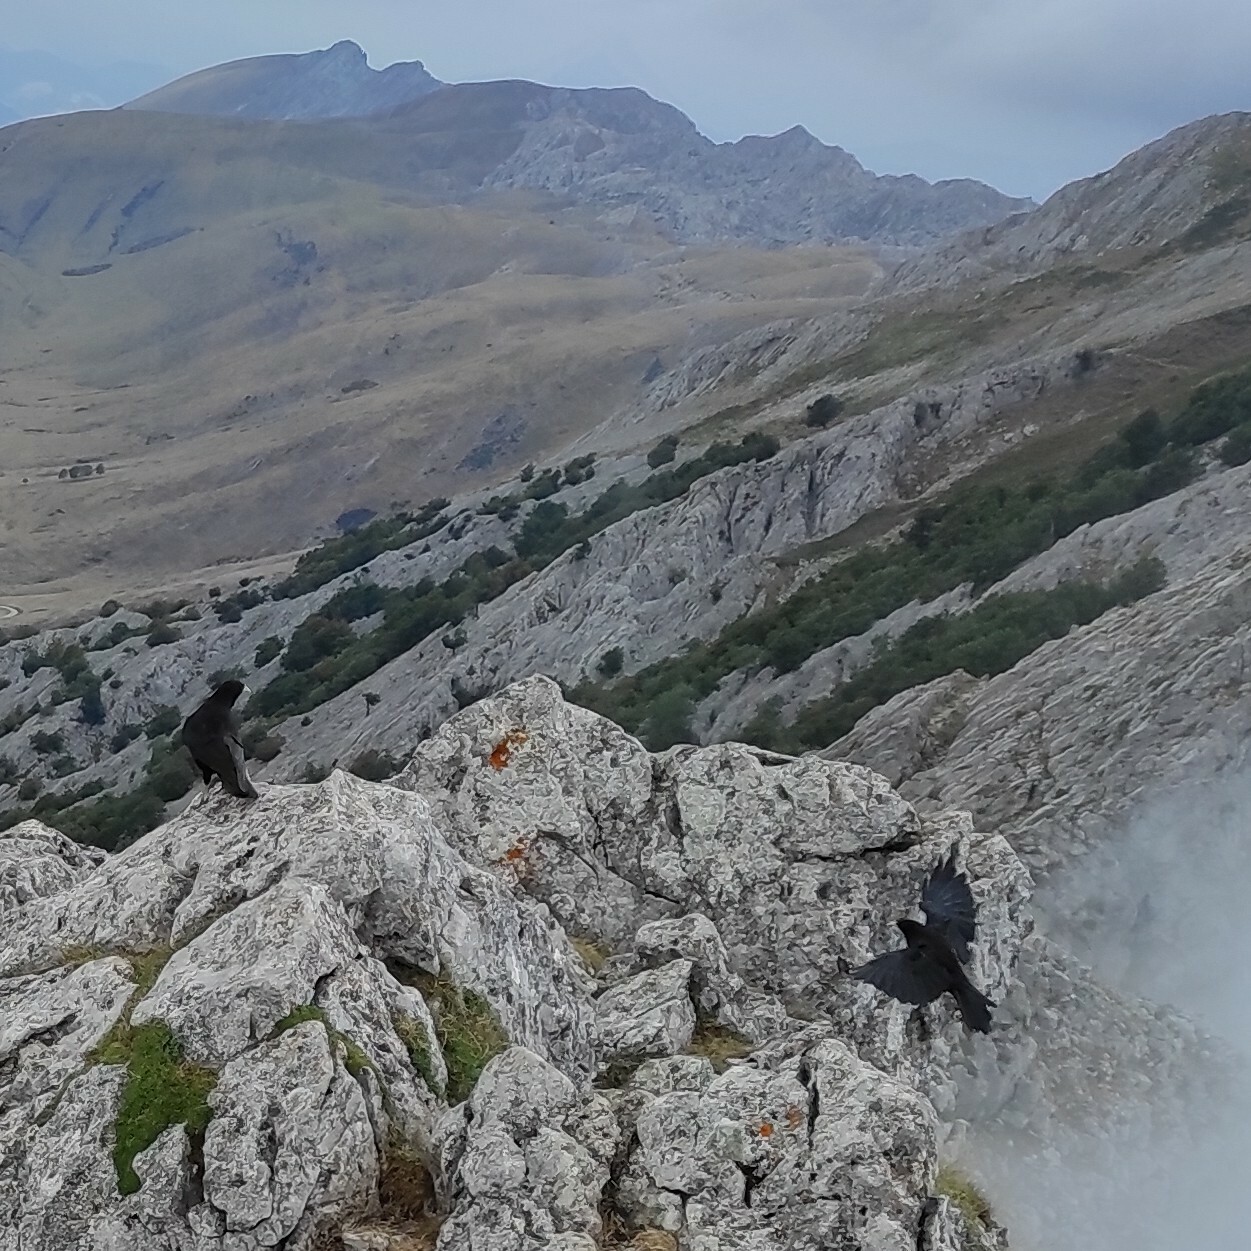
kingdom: Animalia
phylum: Chordata
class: Aves
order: Passeriformes
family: Corvidae
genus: Pyrrhocorax
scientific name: Pyrrhocorax graculus
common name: Alpine chough
